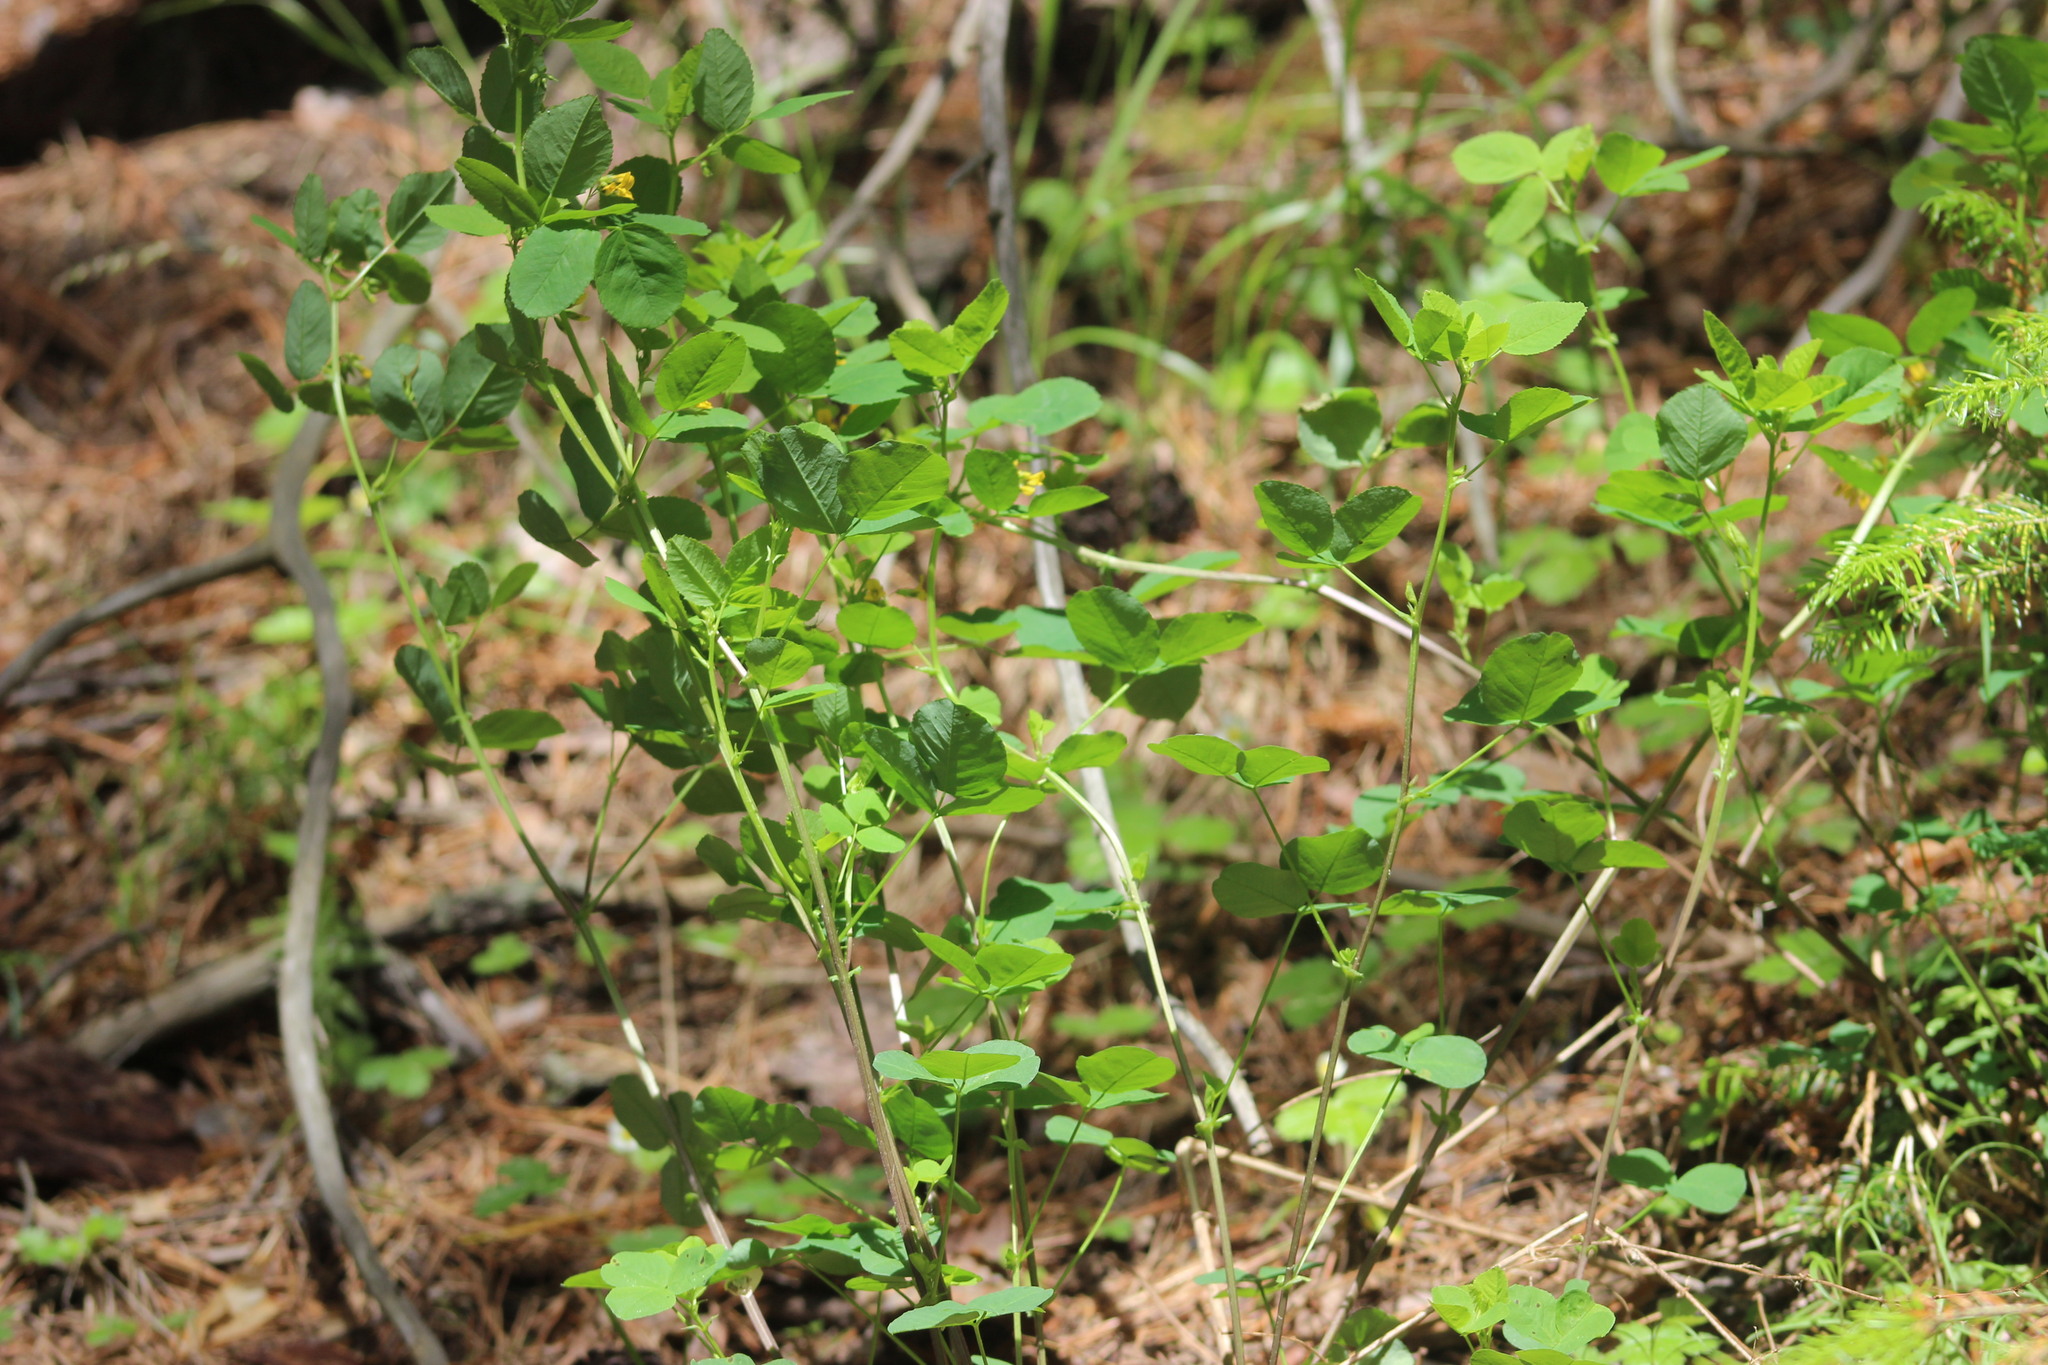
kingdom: Plantae
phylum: Tracheophyta
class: Magnoliopsida
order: Fabales
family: Fabaceae
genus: Medicago
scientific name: Medicago platycarpos
